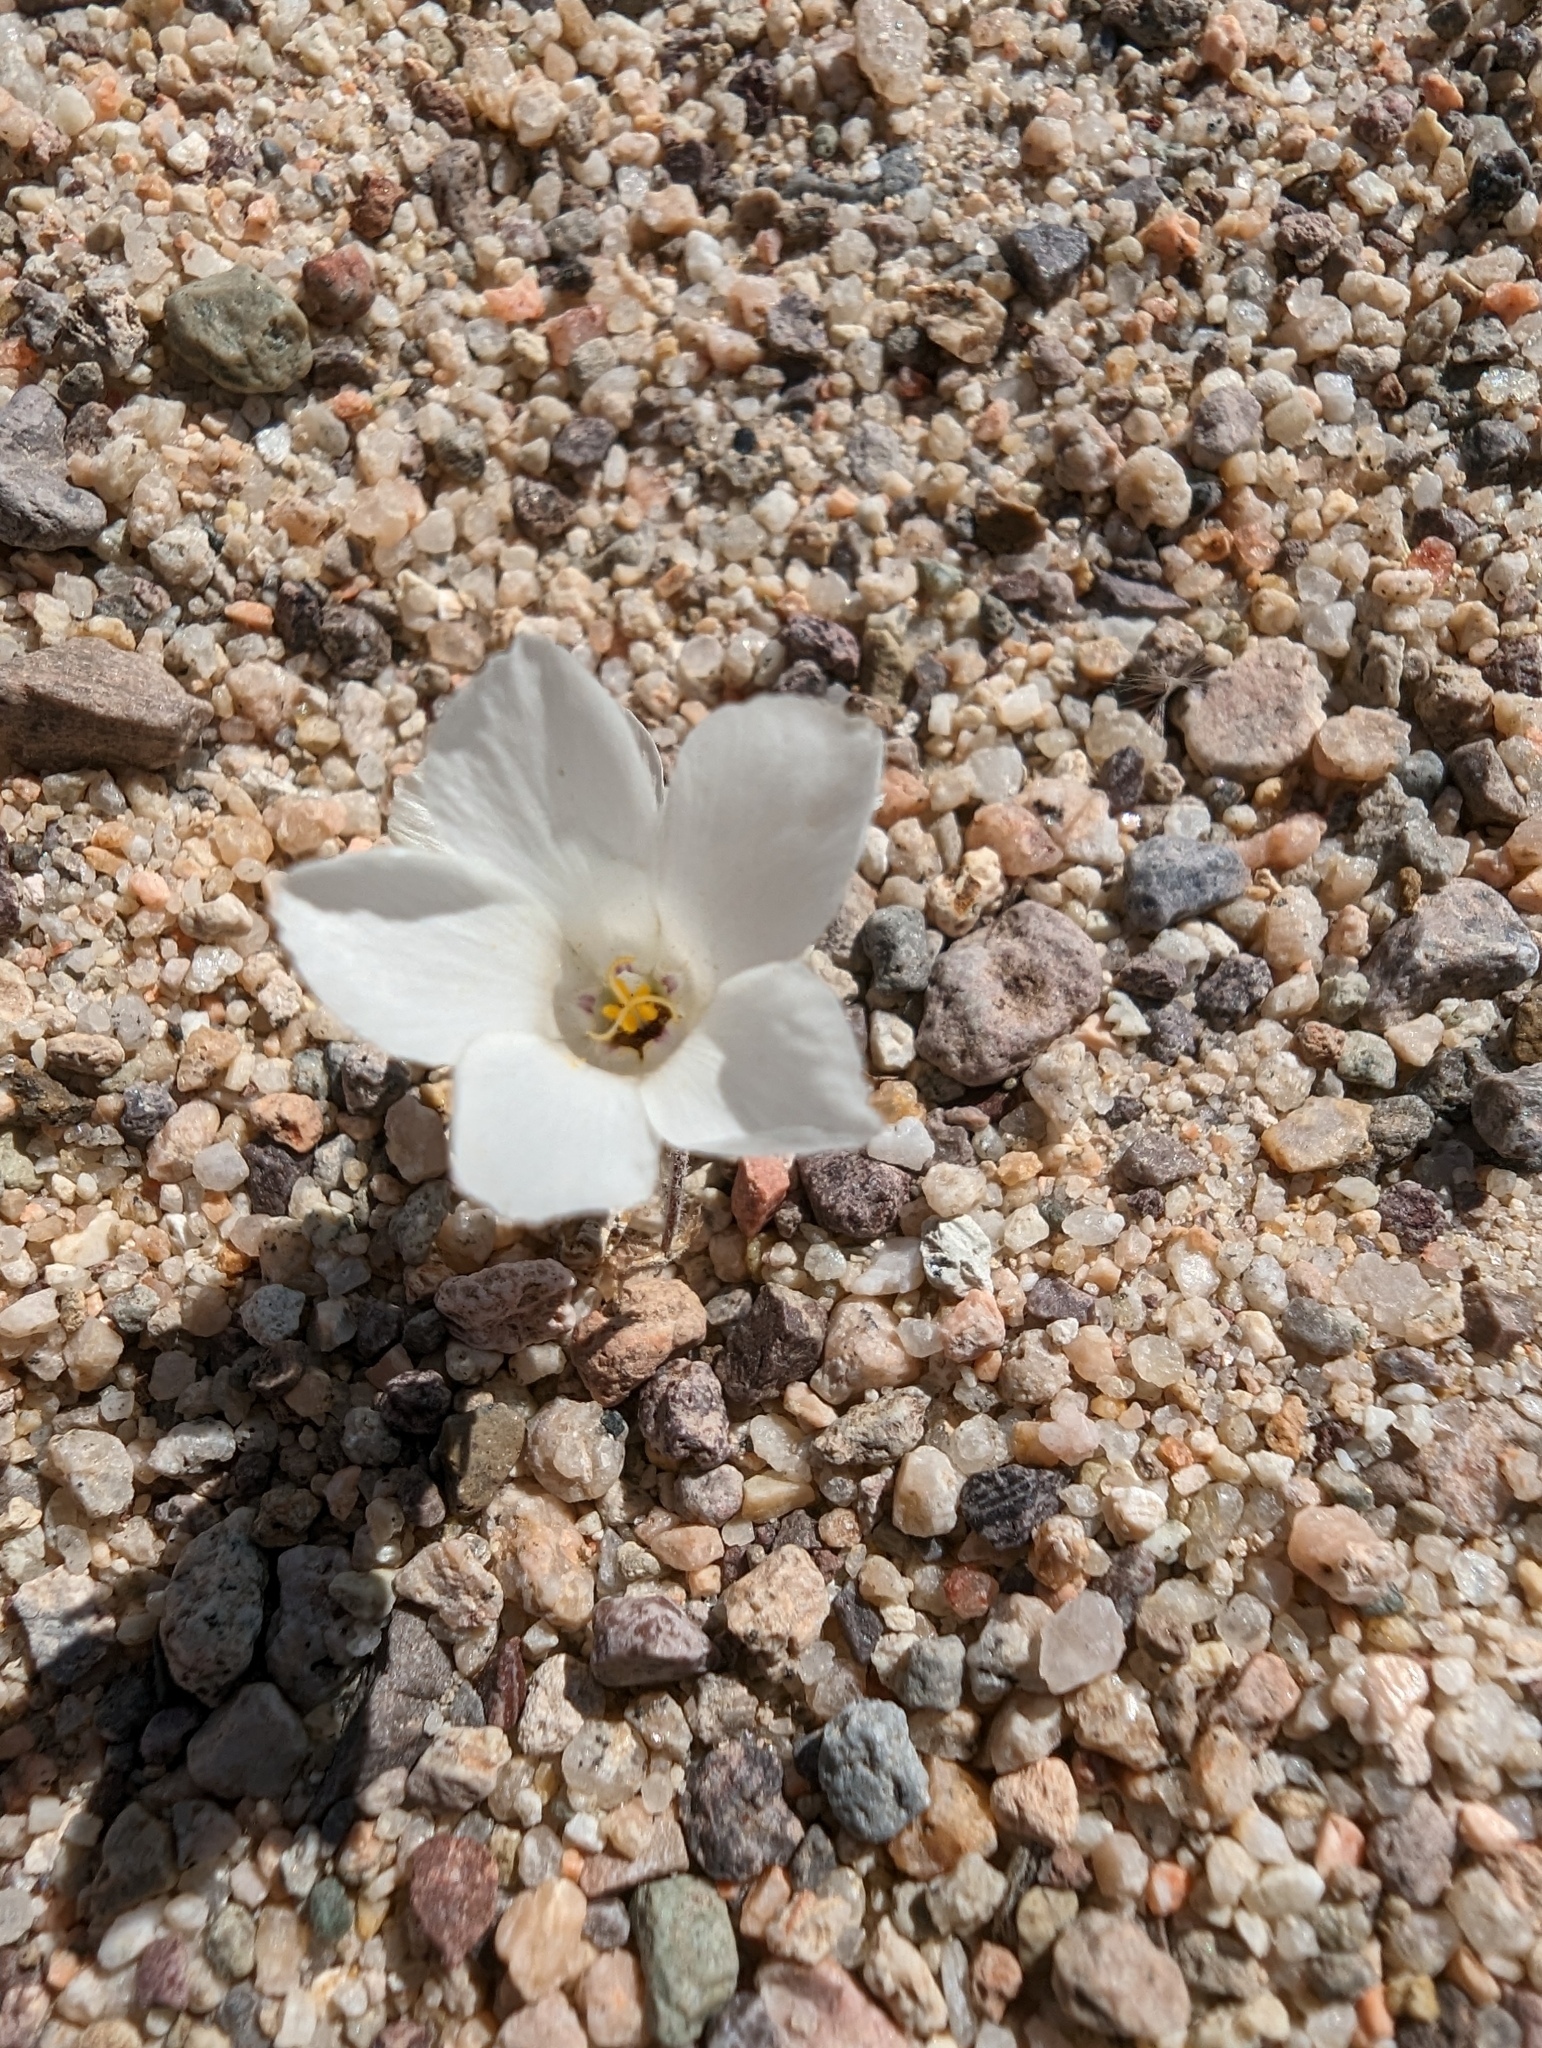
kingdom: Plantae
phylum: Tracheophyta
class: Magnoliopsida
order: Ericales
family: Polemoniaceae
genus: Linanthus
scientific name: Linanthus parryae
